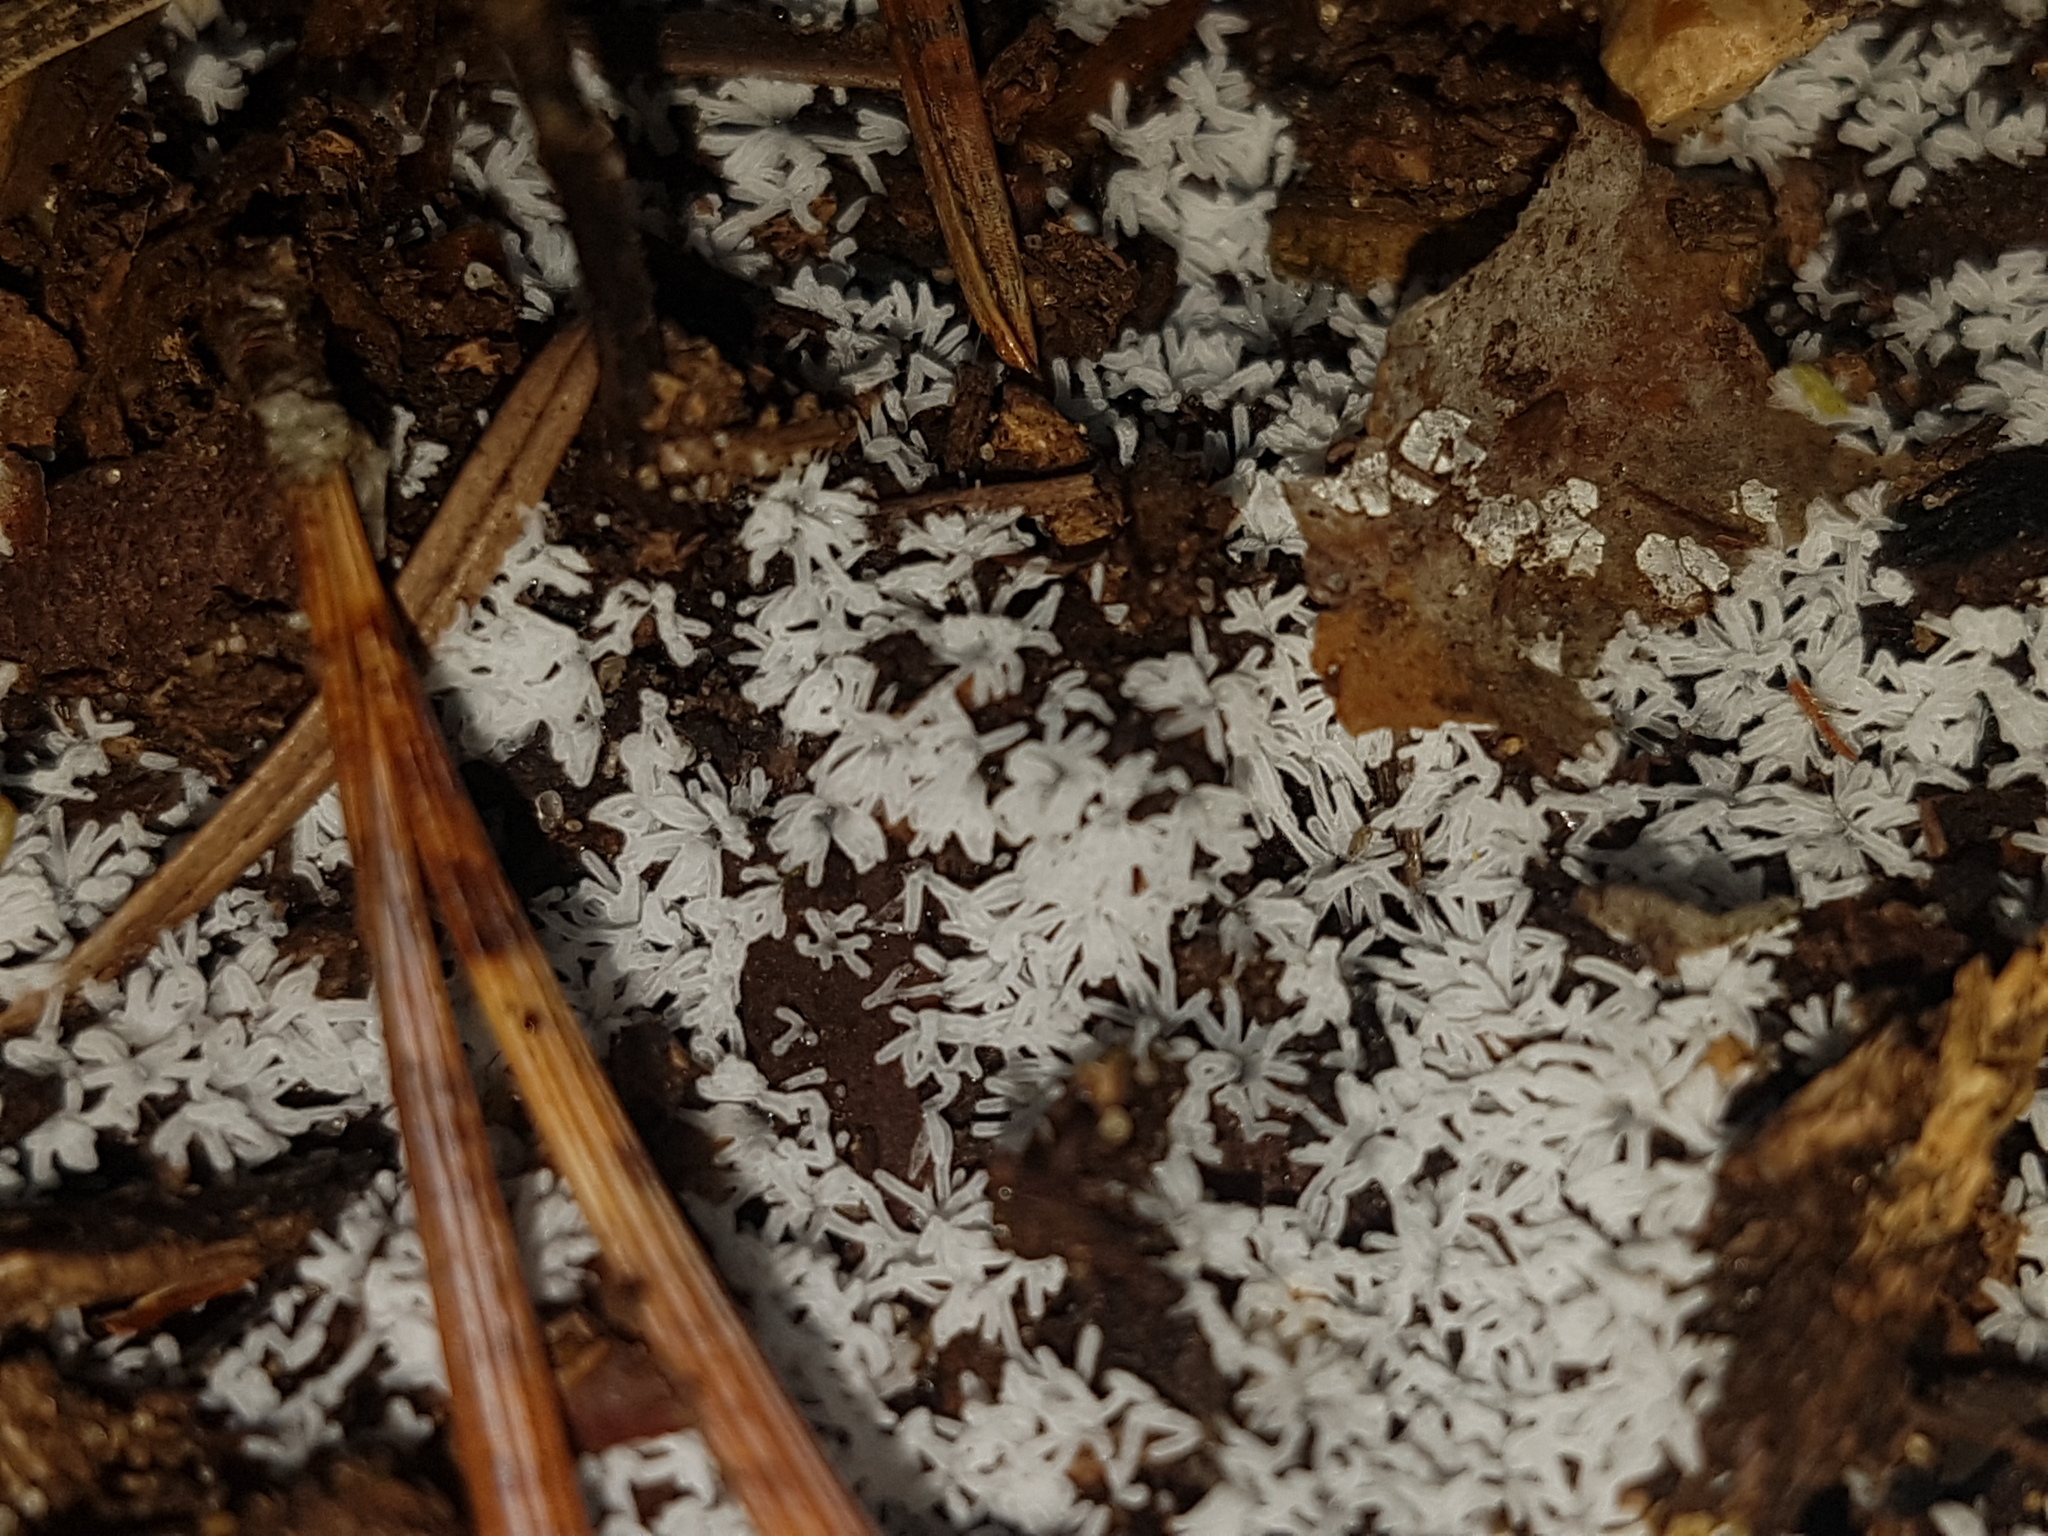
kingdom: Protozoa
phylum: Mycetozoa
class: Protosteliomycetes
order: Ceratiomyxales
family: Ceratiomyxaceae
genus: Ceratiomyxa
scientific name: Ceratiomyxa fruticulosa
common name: Honeycomb coral slime mold
